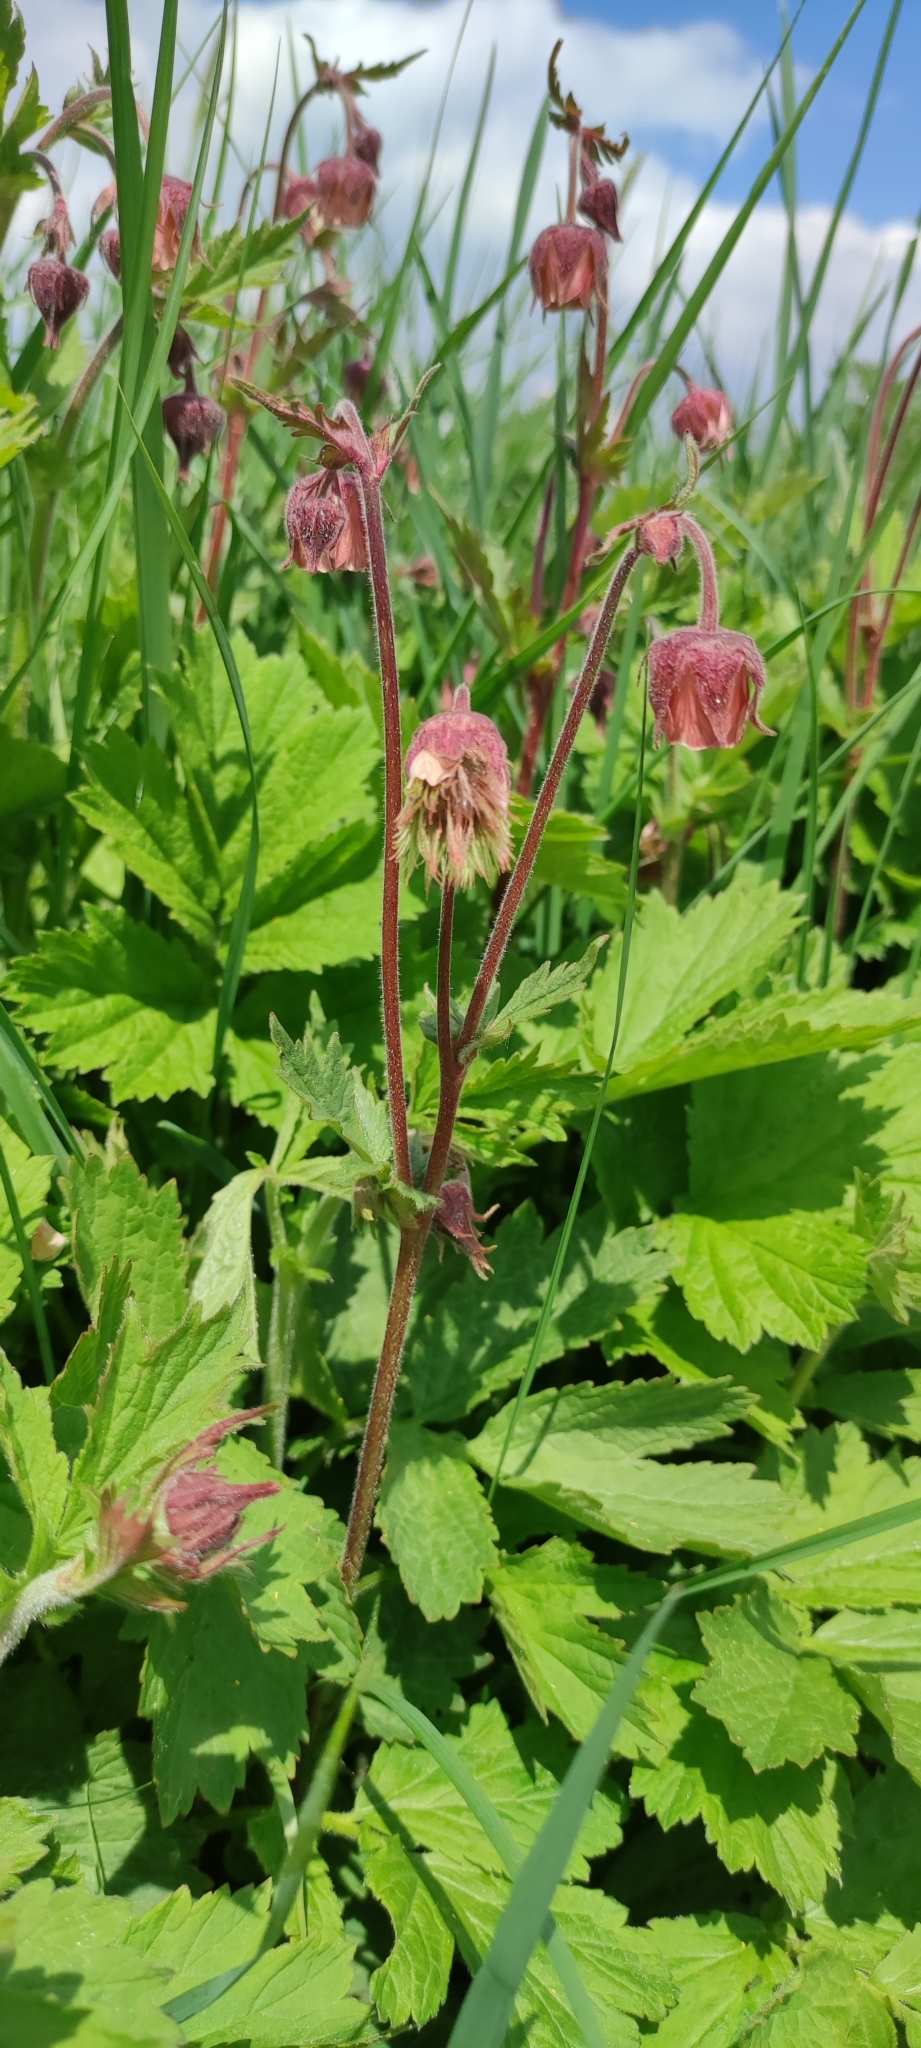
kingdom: Plantae
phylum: Tracheophyta
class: Magnoliopsida
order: Rosales
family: Rosaceae
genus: Geum
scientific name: Geum rivale
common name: Water avens
